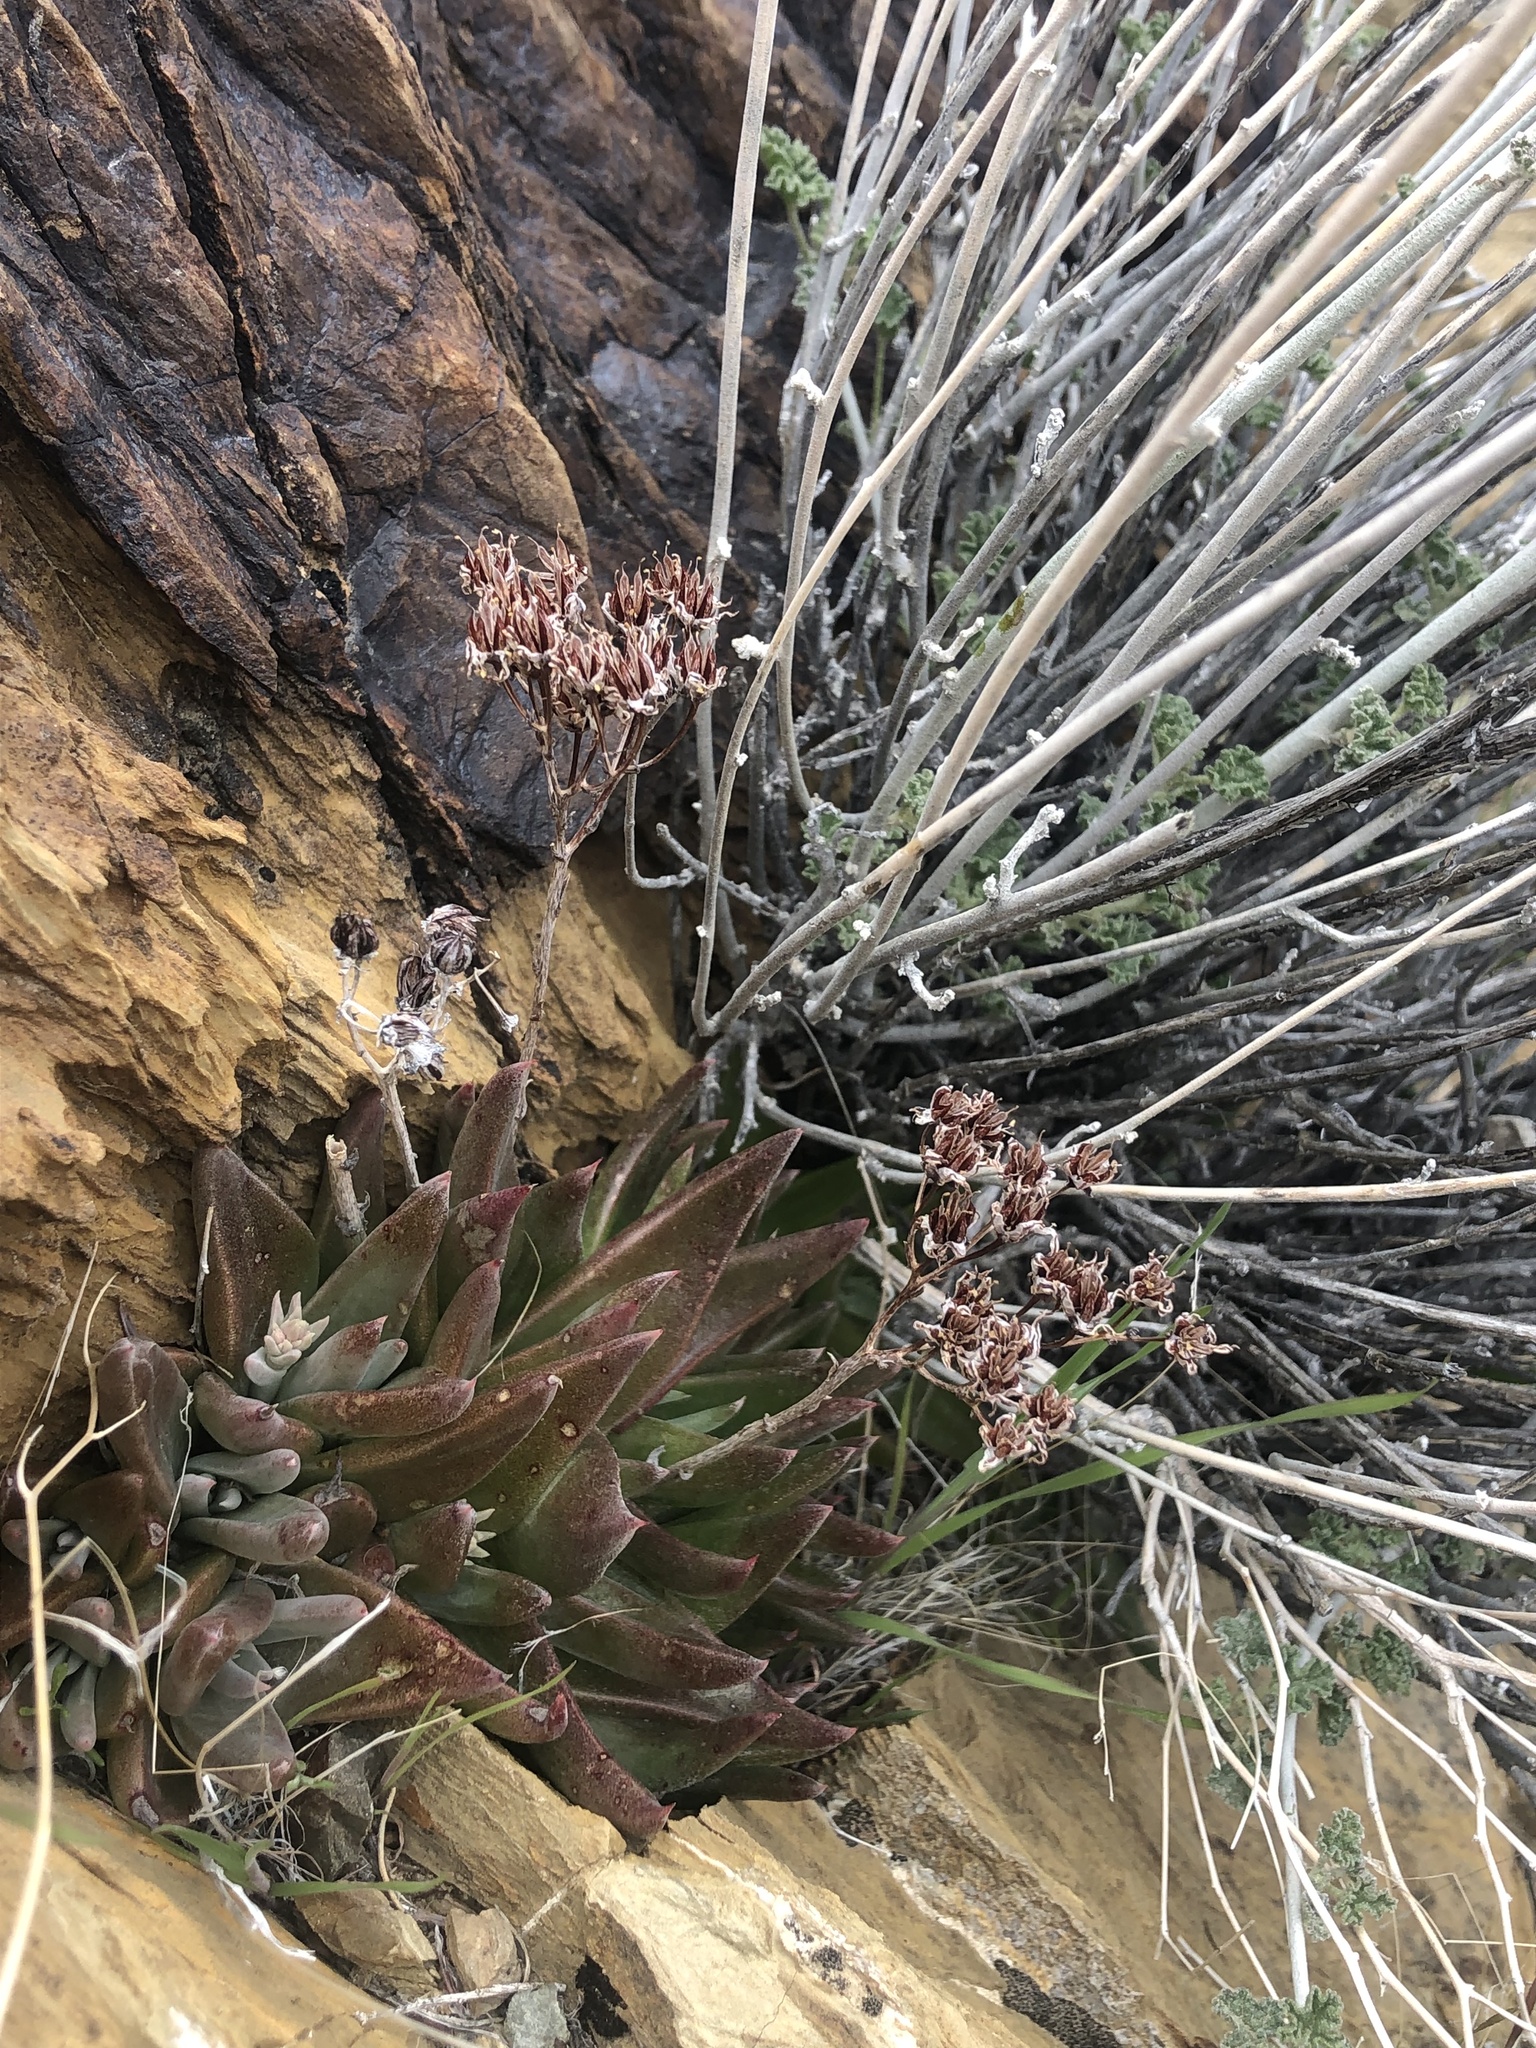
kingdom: Plantae
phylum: Tracheophyta
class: Magnoliopsida
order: Saxifragales
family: Crassulaceae
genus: Dudleya
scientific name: Dudleya saxosa
